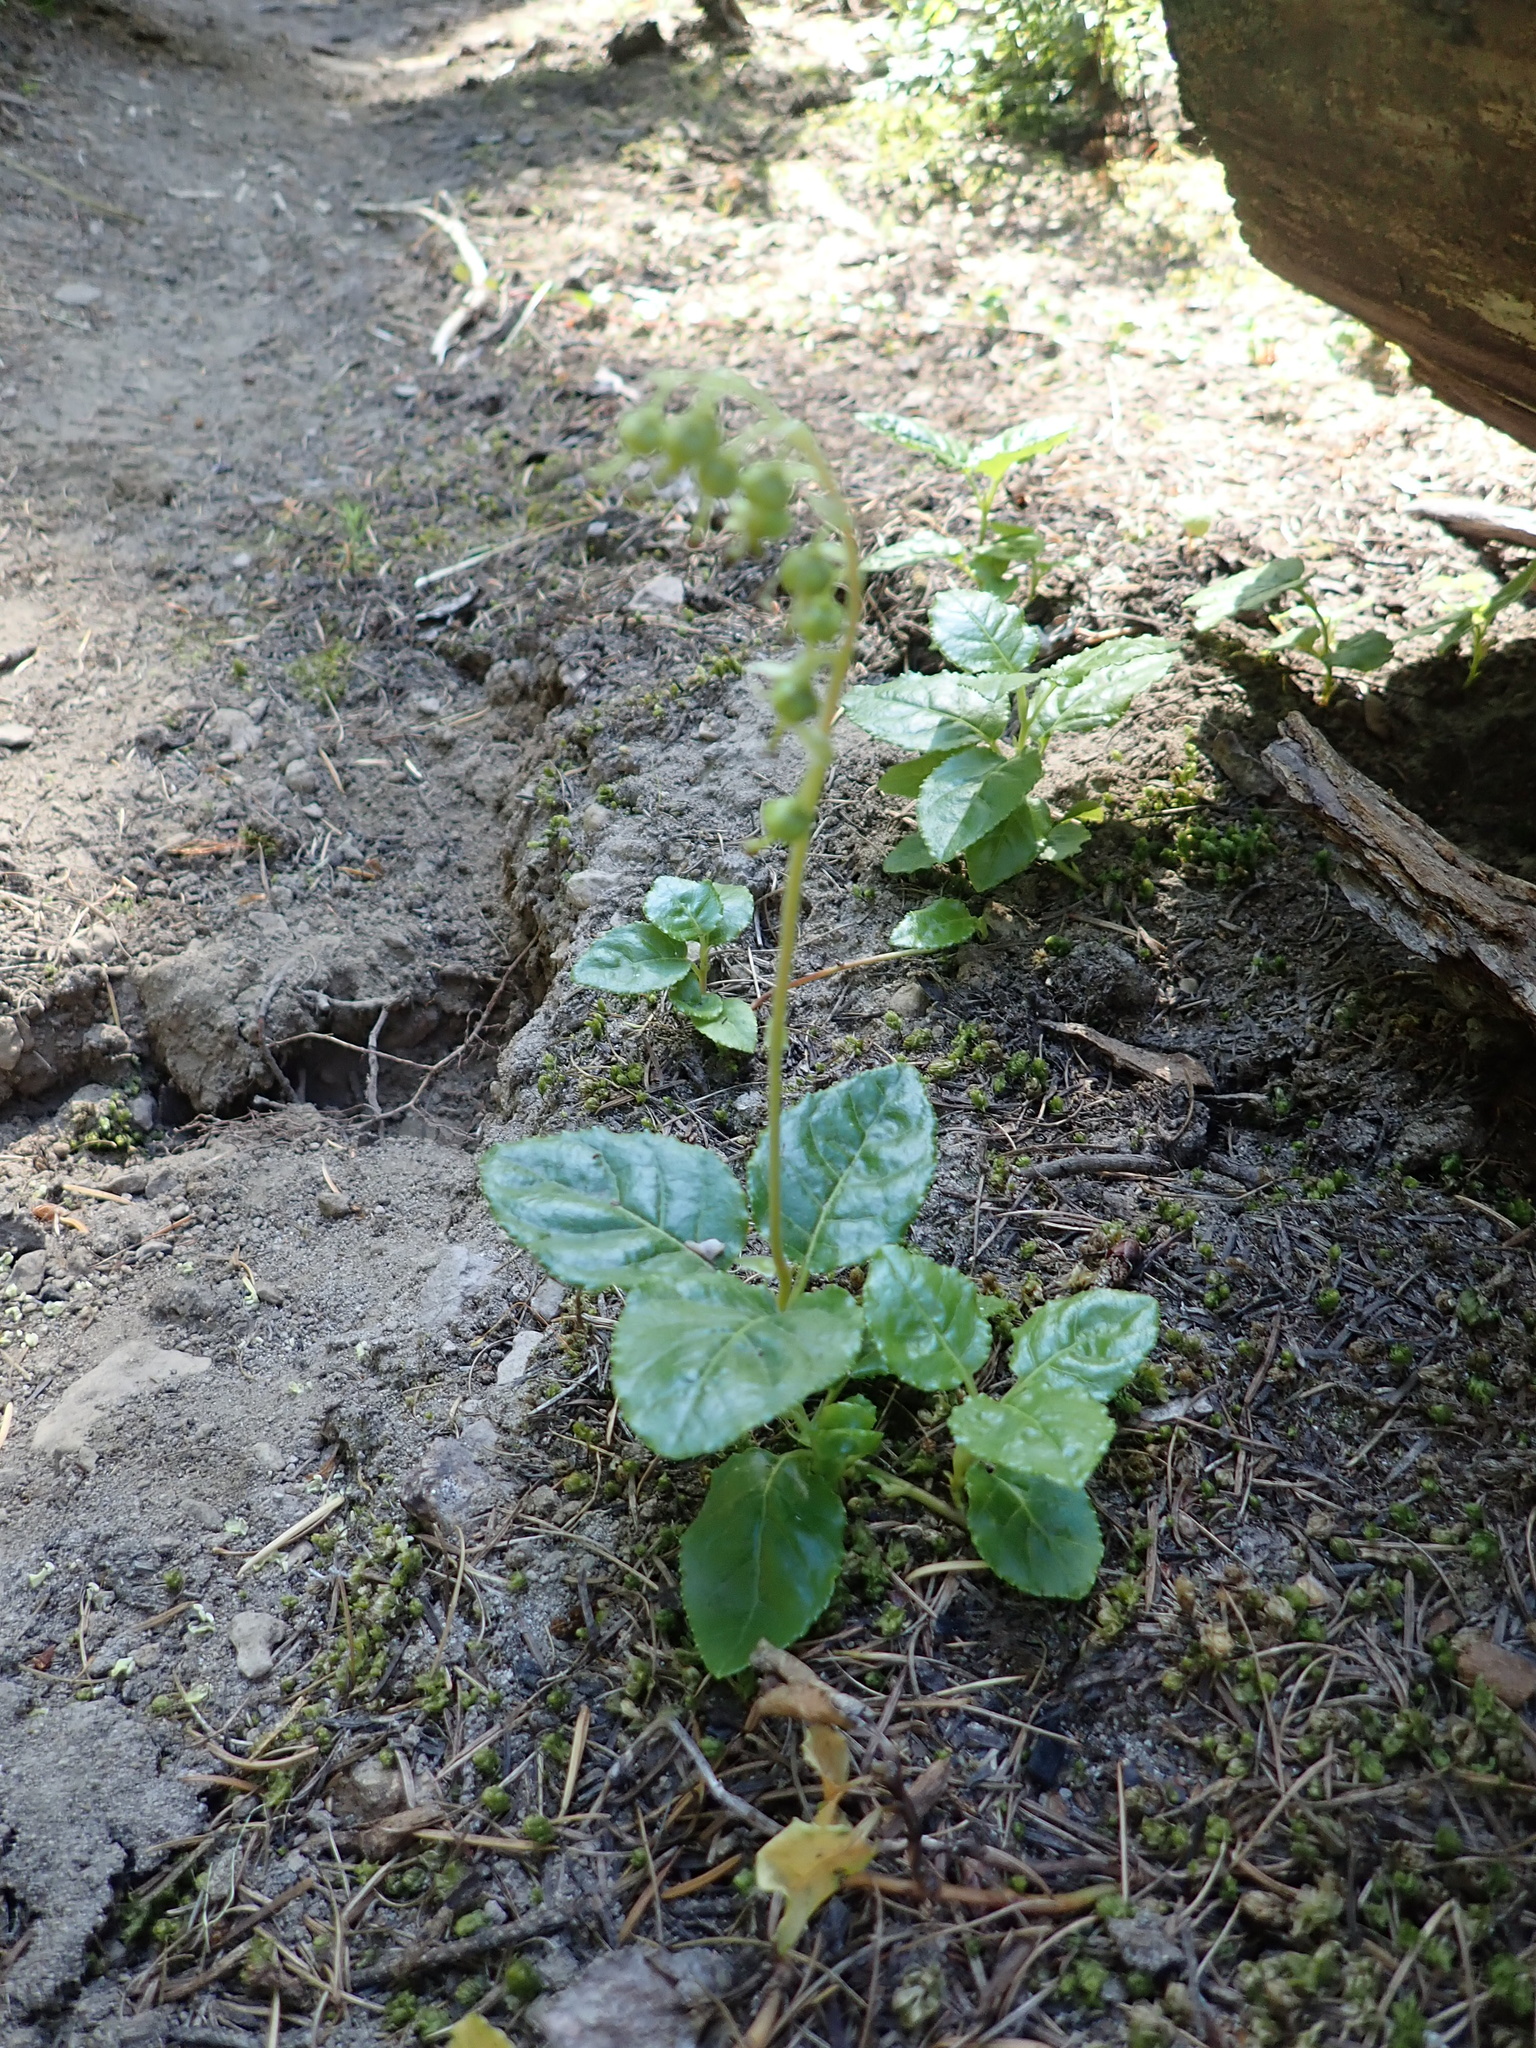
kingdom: Plantae
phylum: Tracheophyta
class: Magnoliopsida
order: Ericales
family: Ericaceae
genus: Orthilia
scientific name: Orthilia secunda
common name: One-sided orthilia
